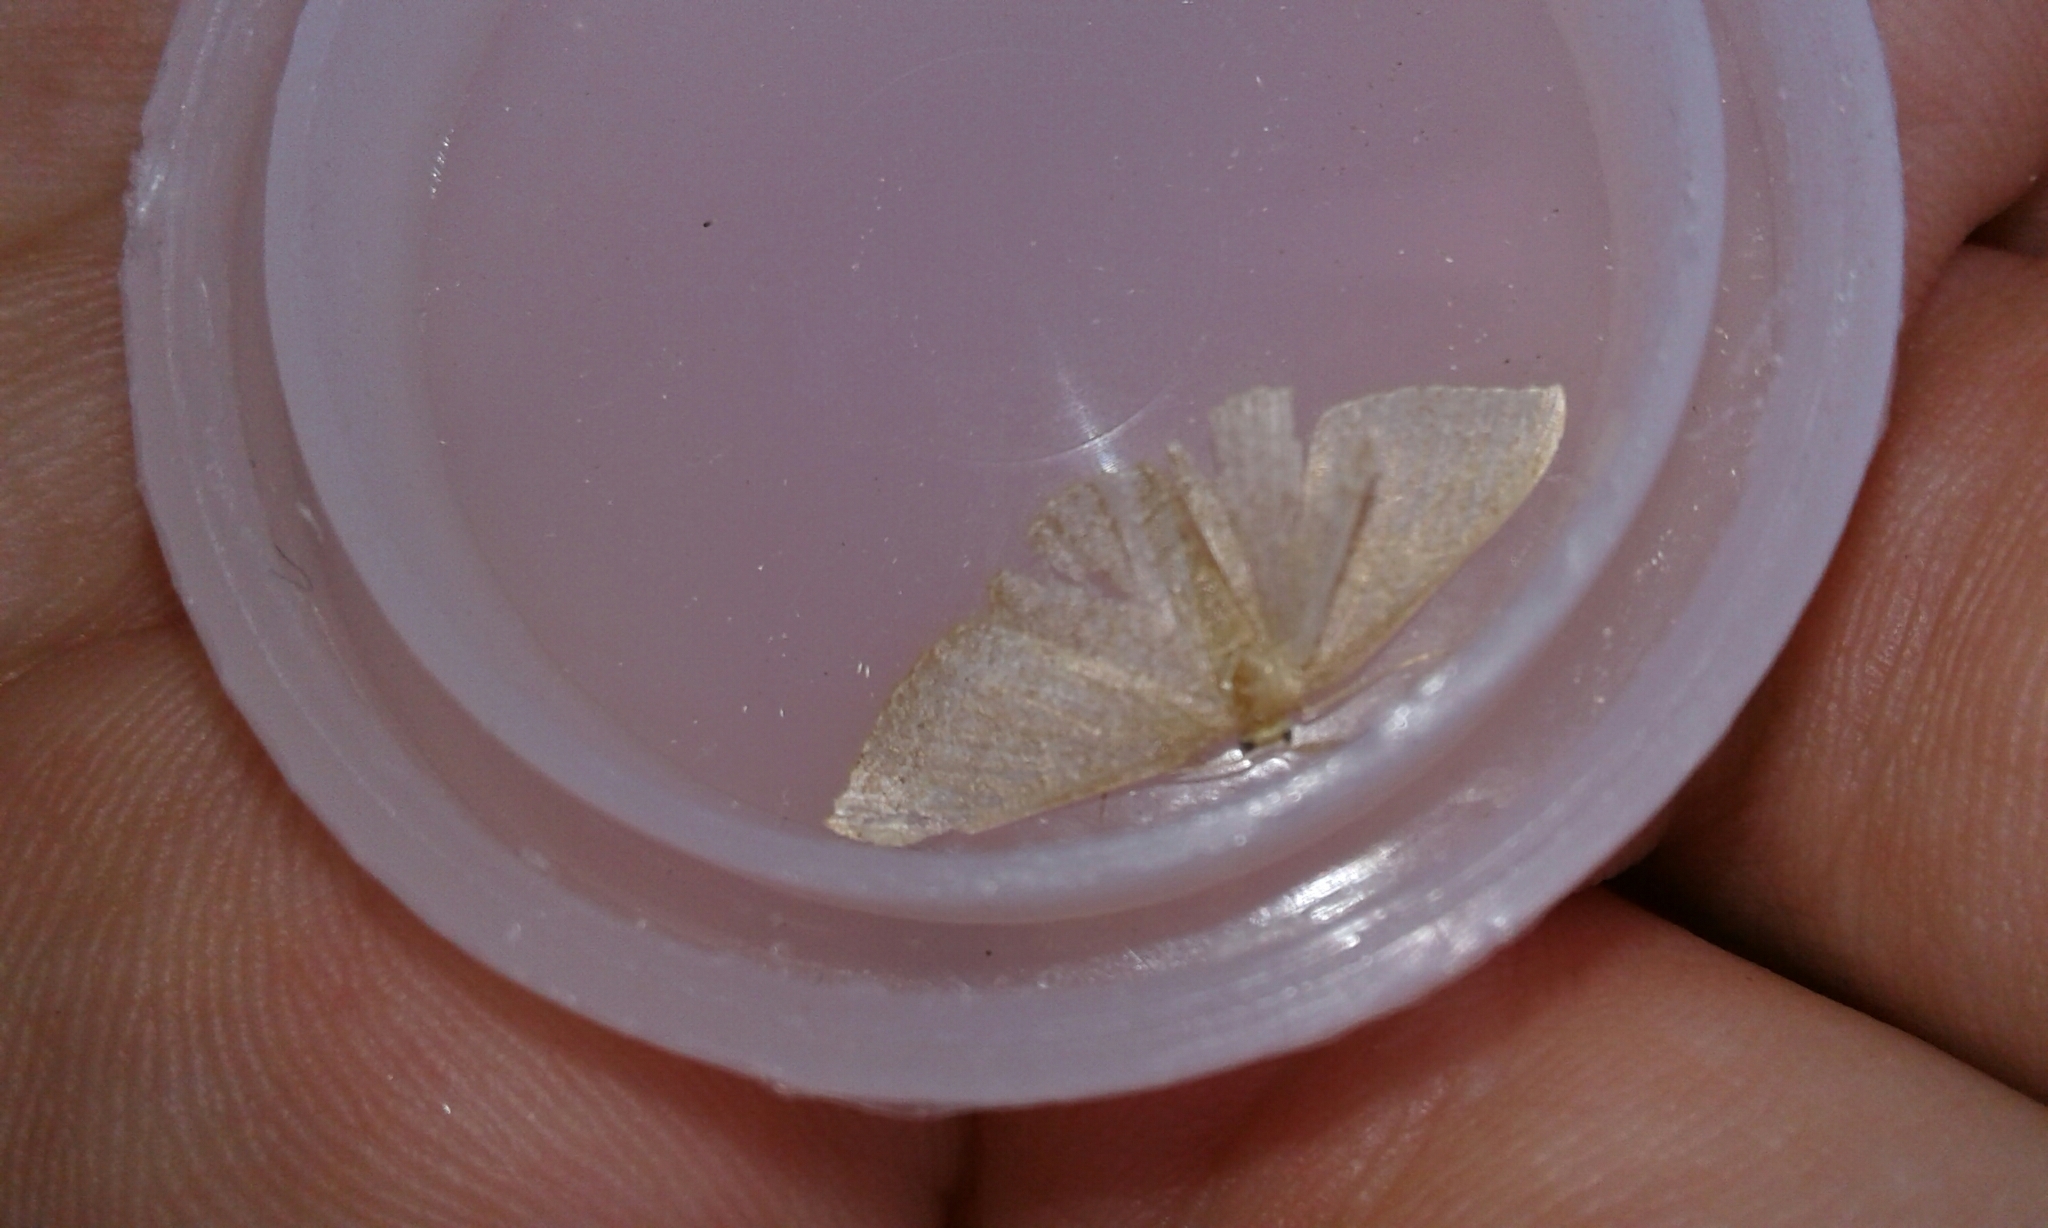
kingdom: Animalia
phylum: Arthropoda
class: Insecta
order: Lepidoptera
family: Geometridae
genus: Pleuroprucha
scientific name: Pleuroprucha insulsaria
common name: Common tan wave
